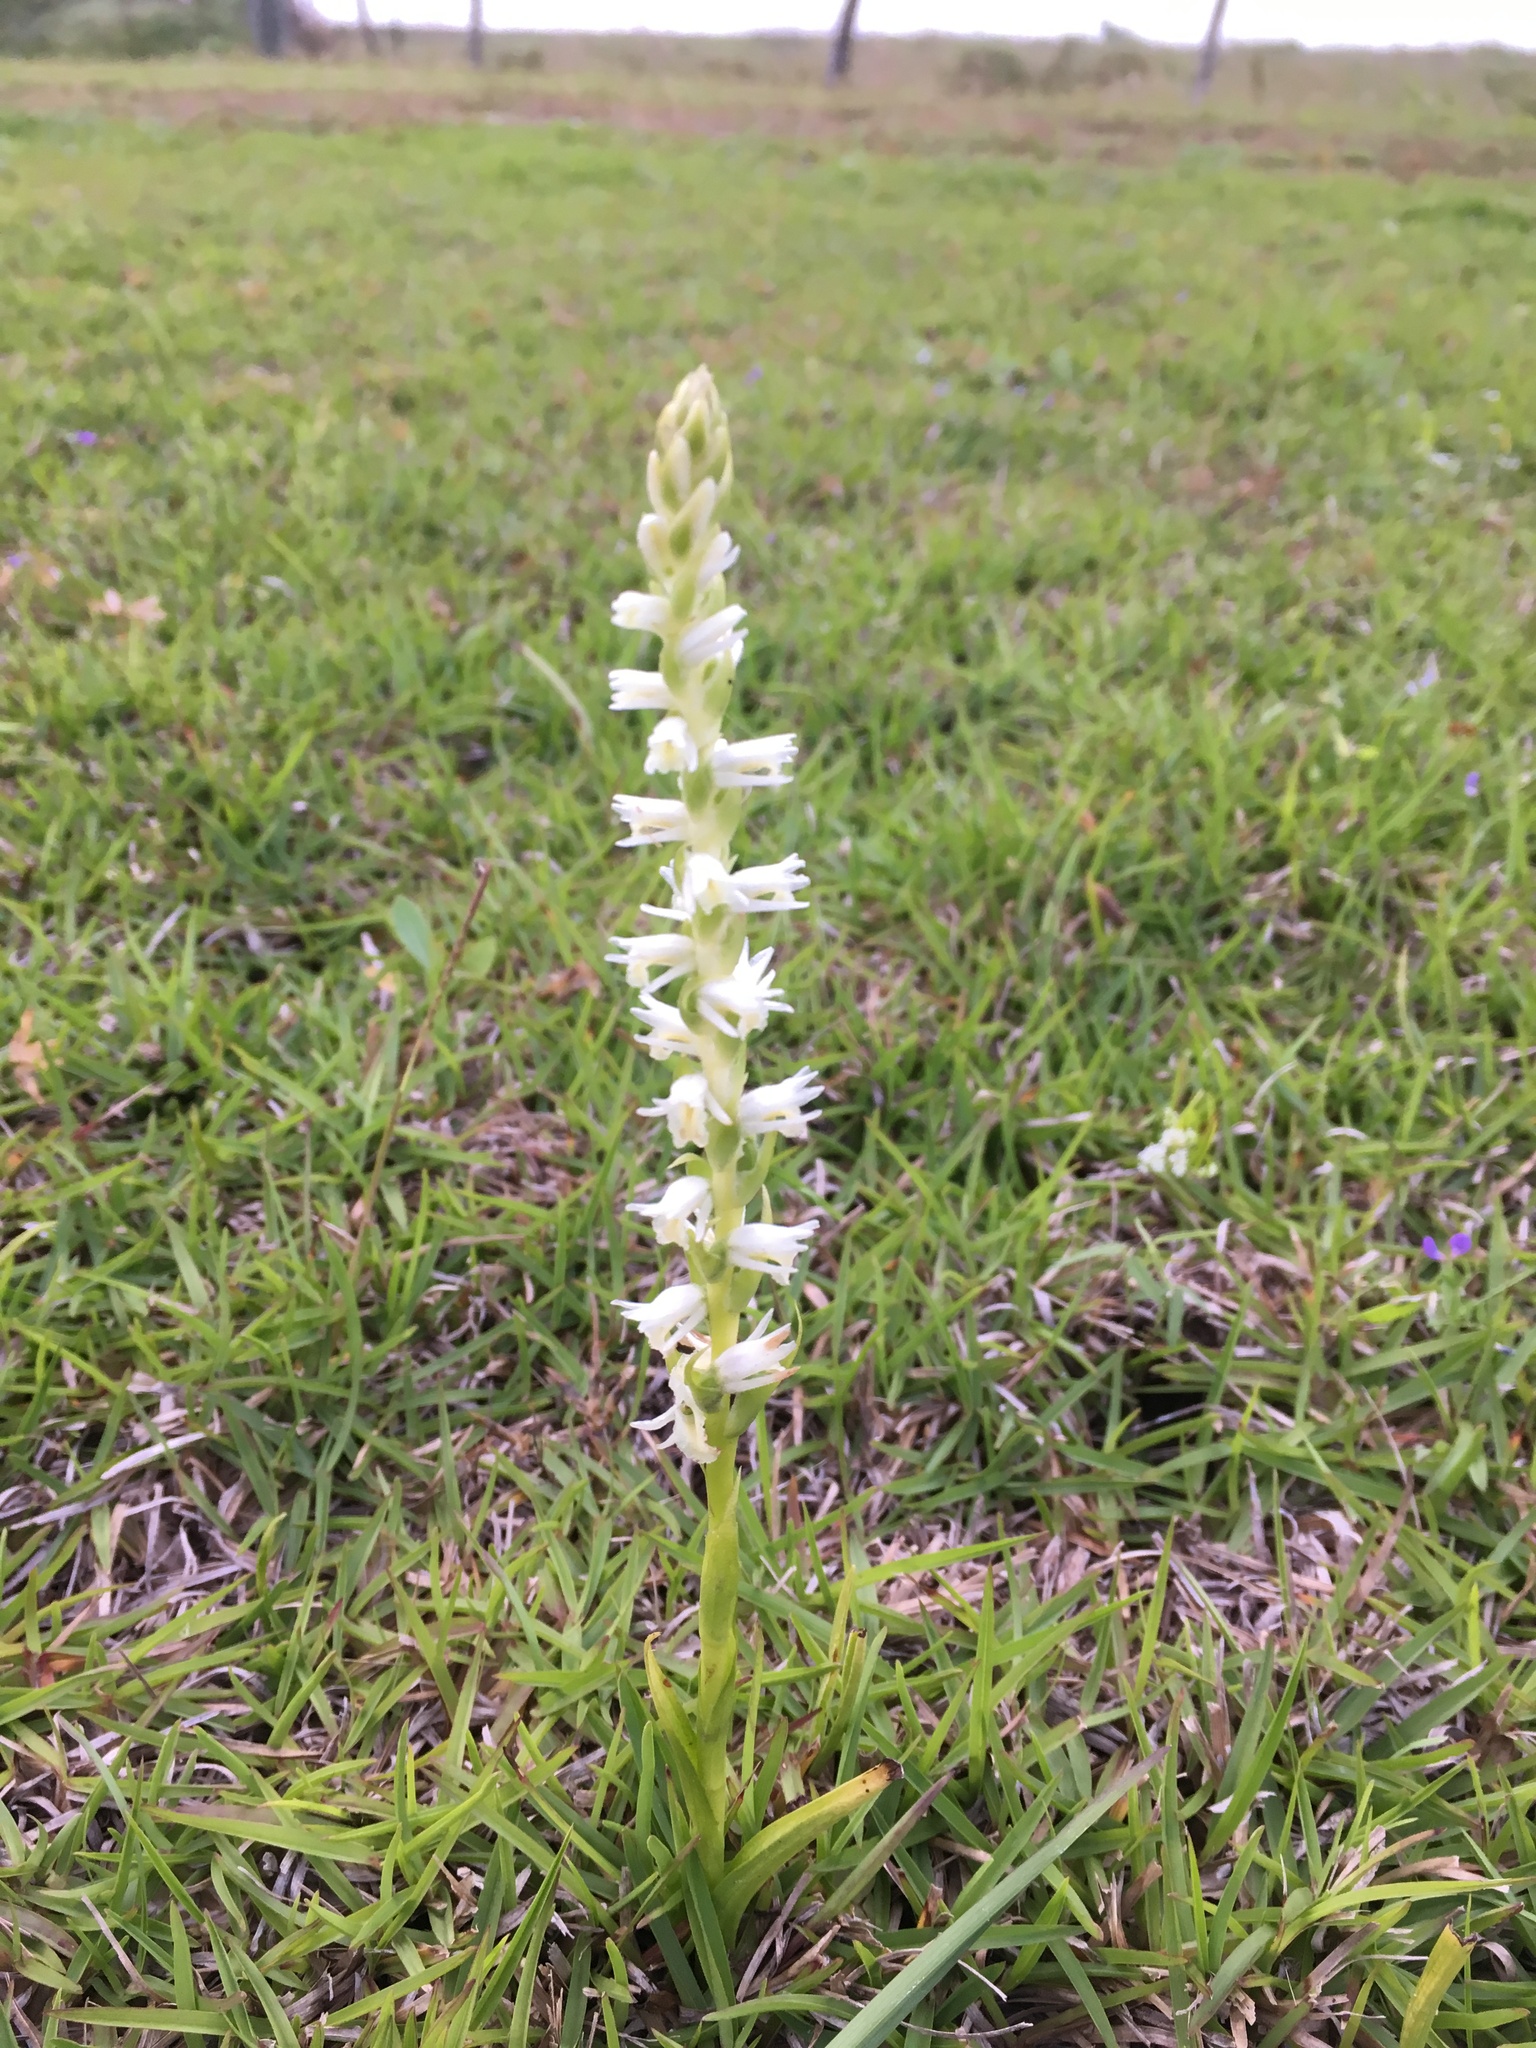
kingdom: Plantae
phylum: Tracheophyta
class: Liliopsida
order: Asparagales
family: Orchidaceae
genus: Spiranthes
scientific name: Spiranthes vernalis
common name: Spring ladies'-tresses
